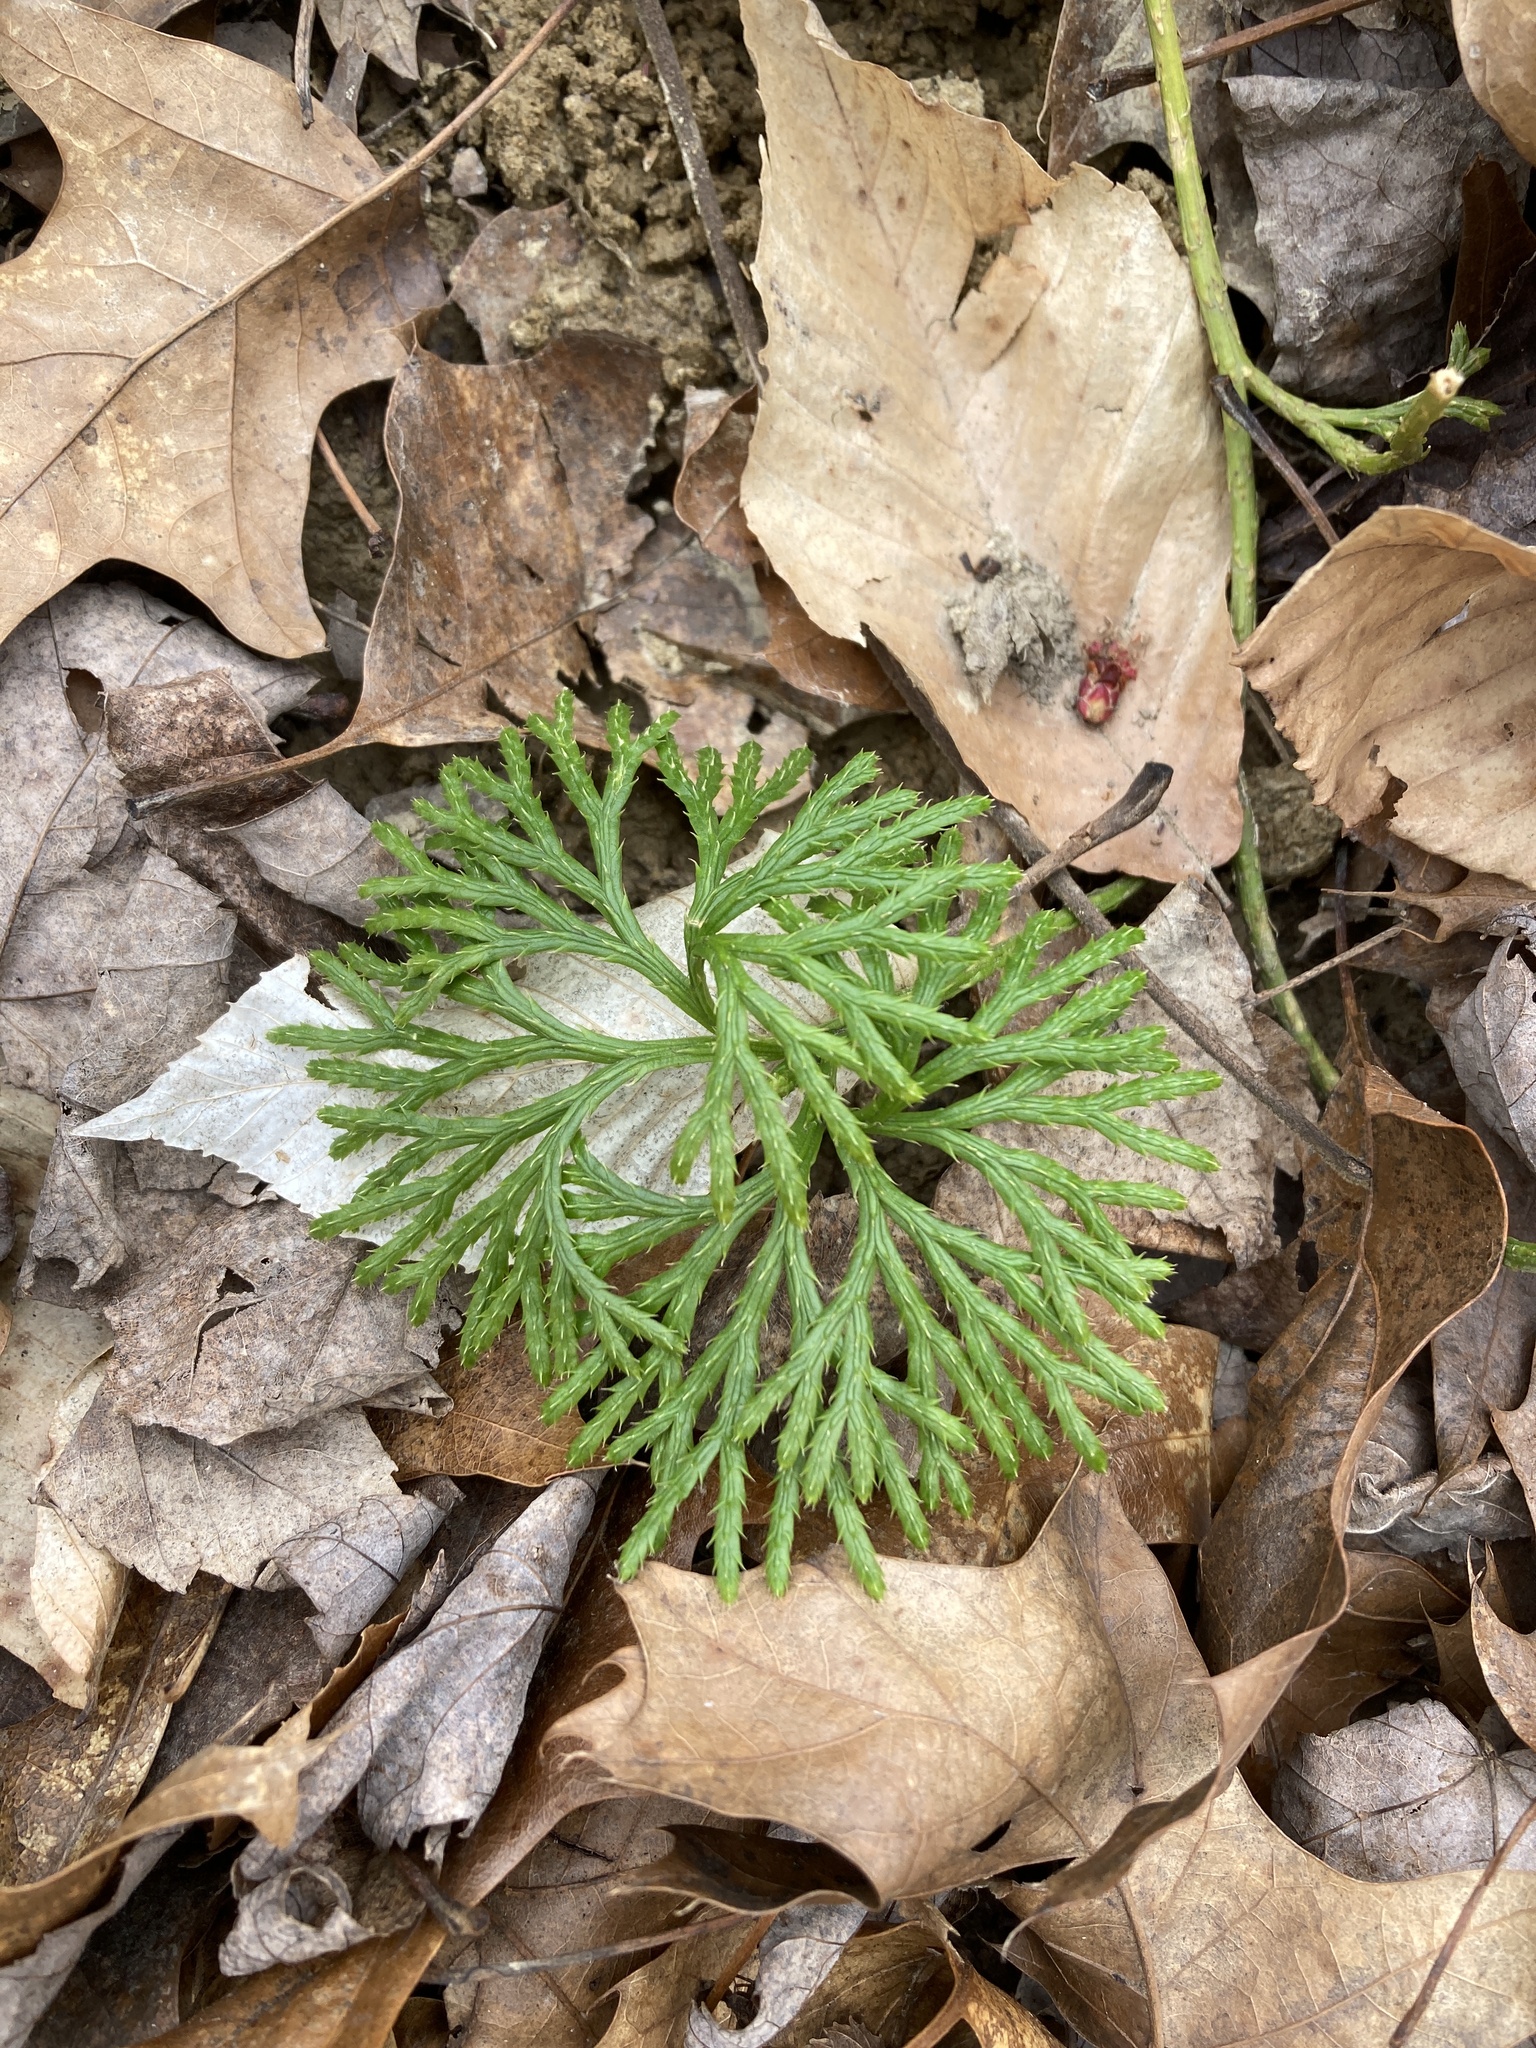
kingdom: Plantae
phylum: Tracheophyta
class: Lycopodiopsida
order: Lycopodiales
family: Lycopodiaceae
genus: Diphasiastrum
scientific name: Diphasiastrum digitatum
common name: Southern running-pine
